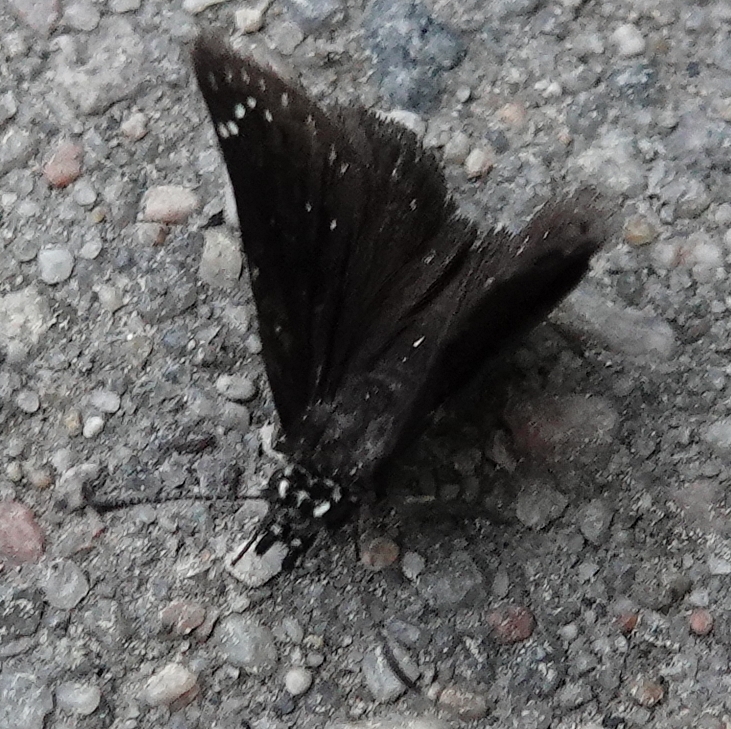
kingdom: Animalia
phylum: Arthropoda
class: Insecta
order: Lepidoptera
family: Hesperiidae
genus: Pholisora
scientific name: Pholisora catullus
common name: Common sootywing
